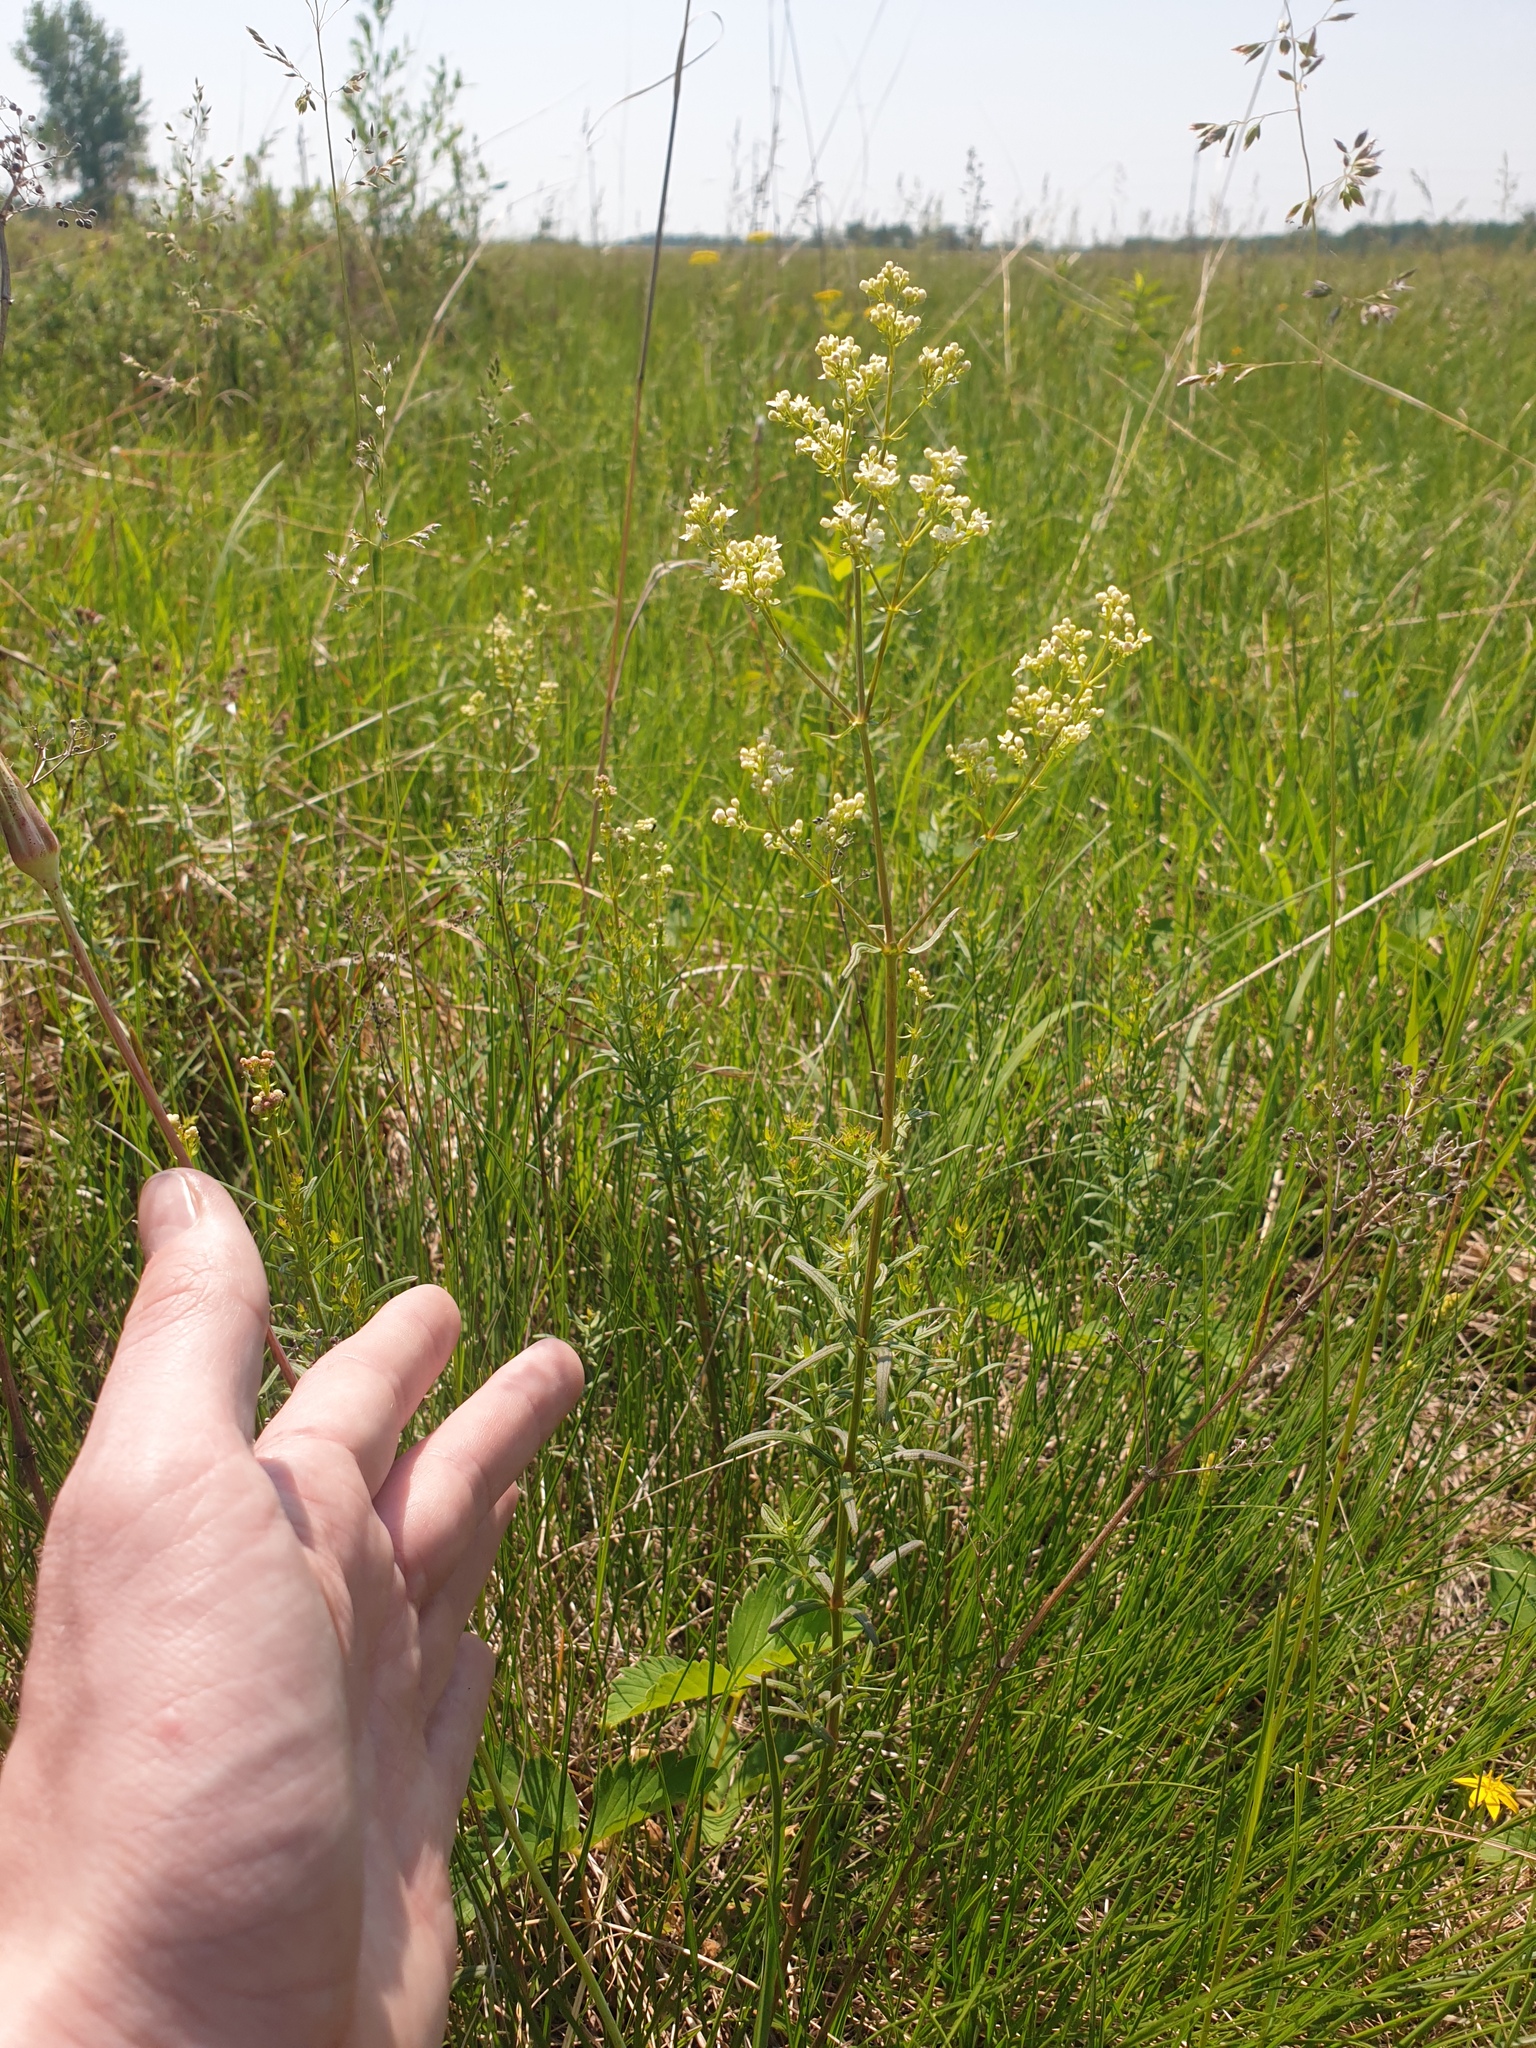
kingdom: Plantae
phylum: Tracheophyta
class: Magnoliopsida
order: Gentianales
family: Rubiaceae
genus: Galium
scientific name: Galium boreale
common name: Northern bedstraw
